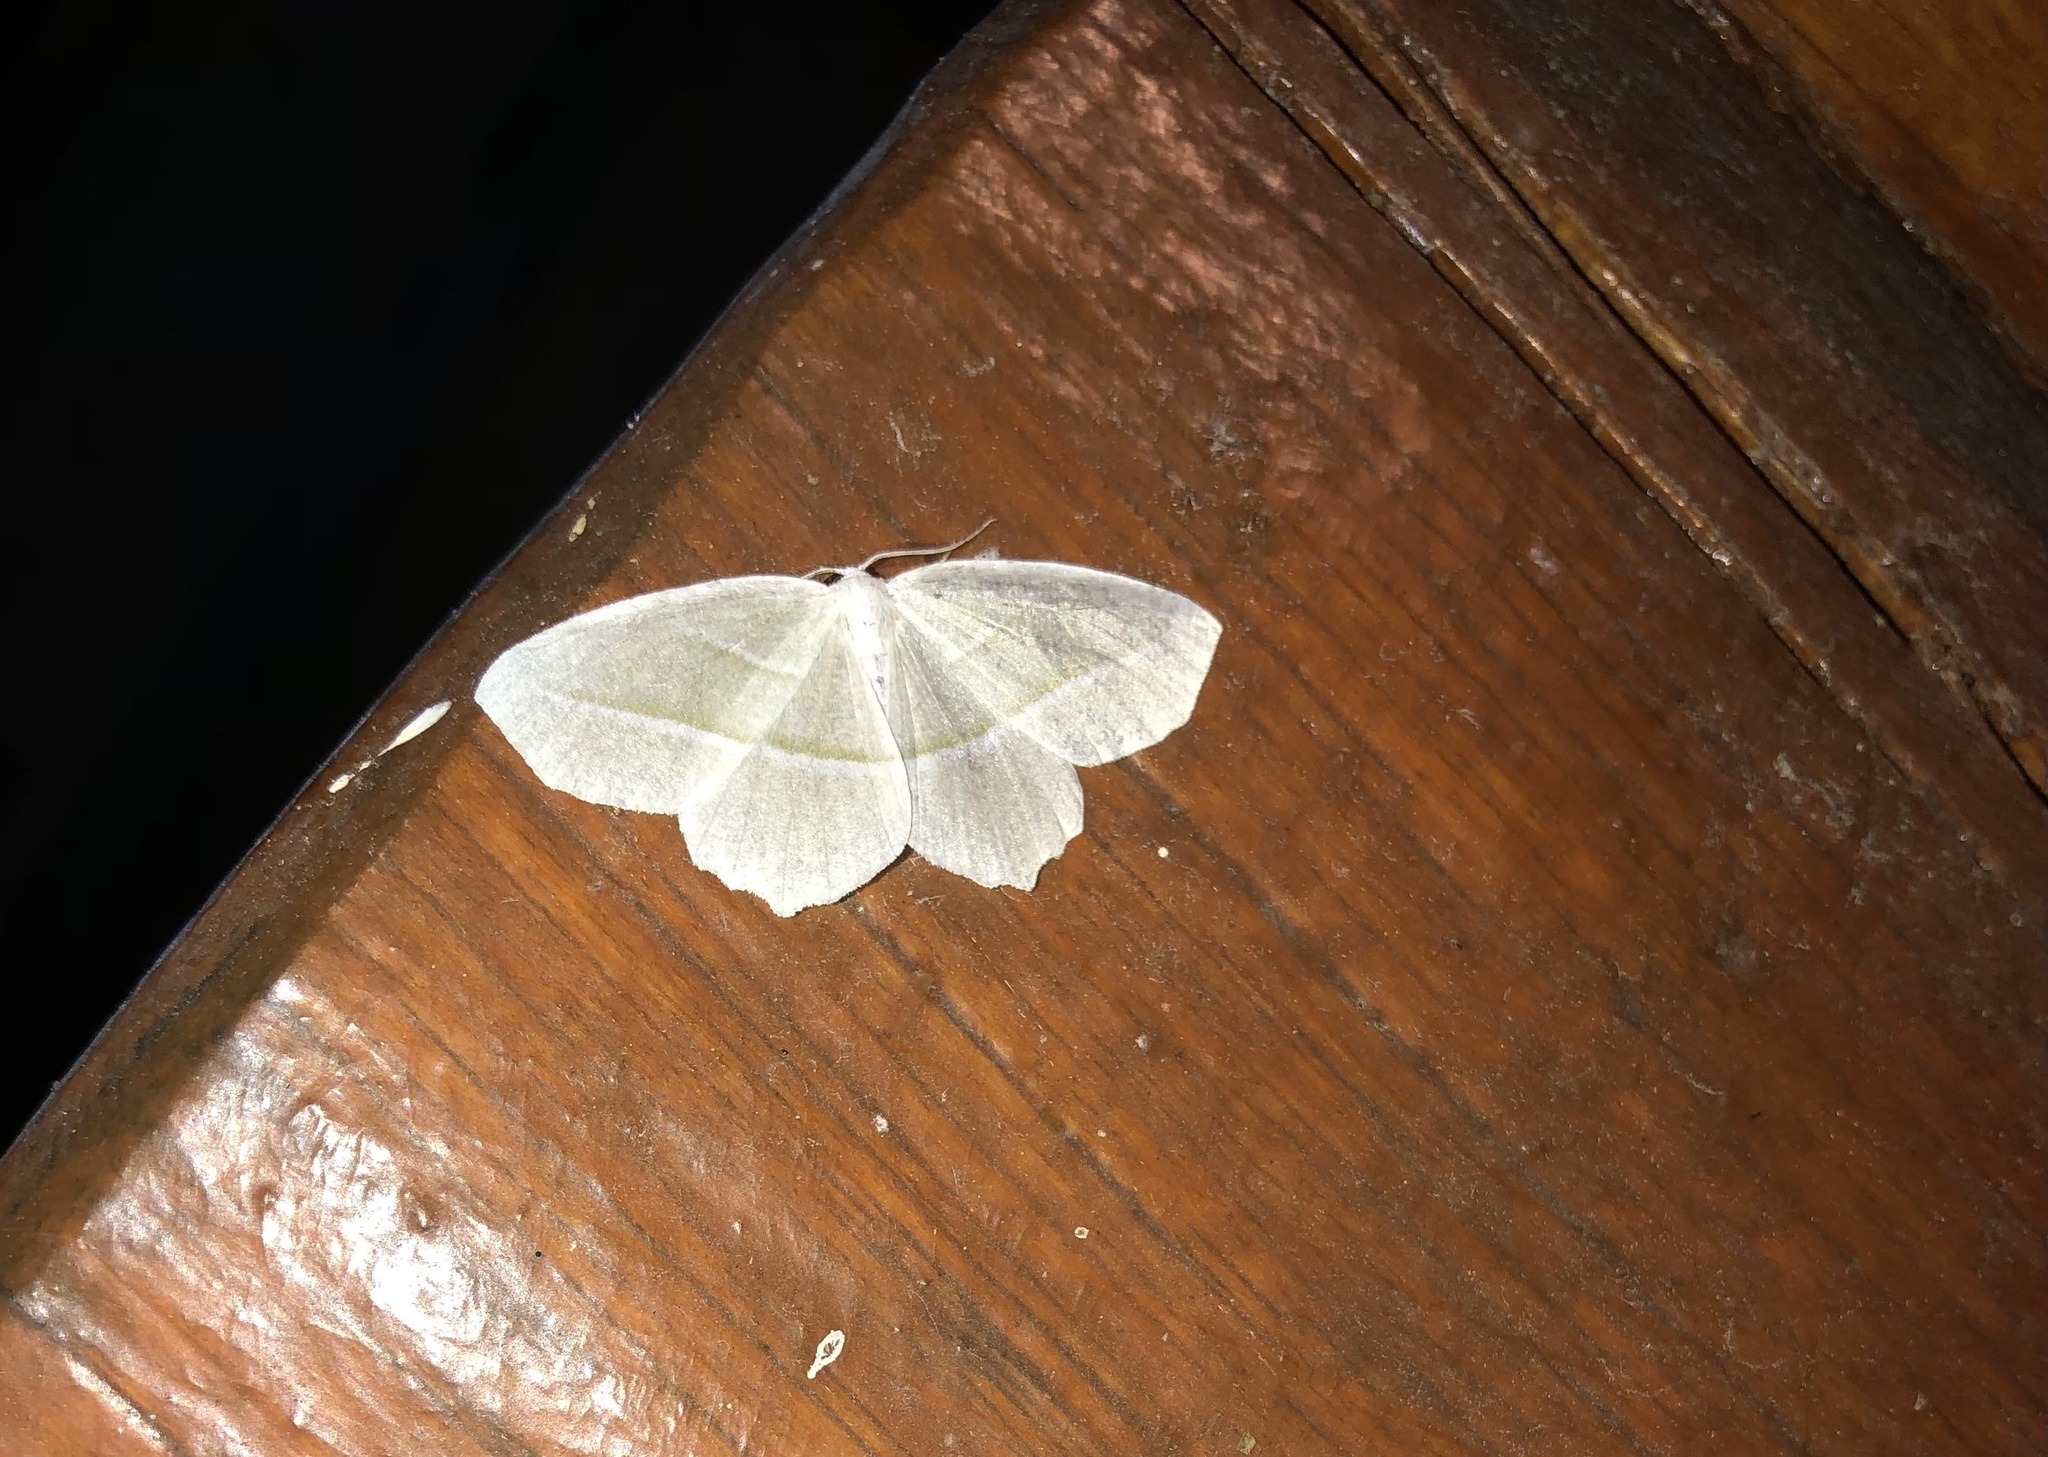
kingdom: Animalia
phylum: Arthropoda
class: Insecta
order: Lepidoptera
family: Geometridae
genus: Campaea
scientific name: Campaea perlata
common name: Fringed looper
